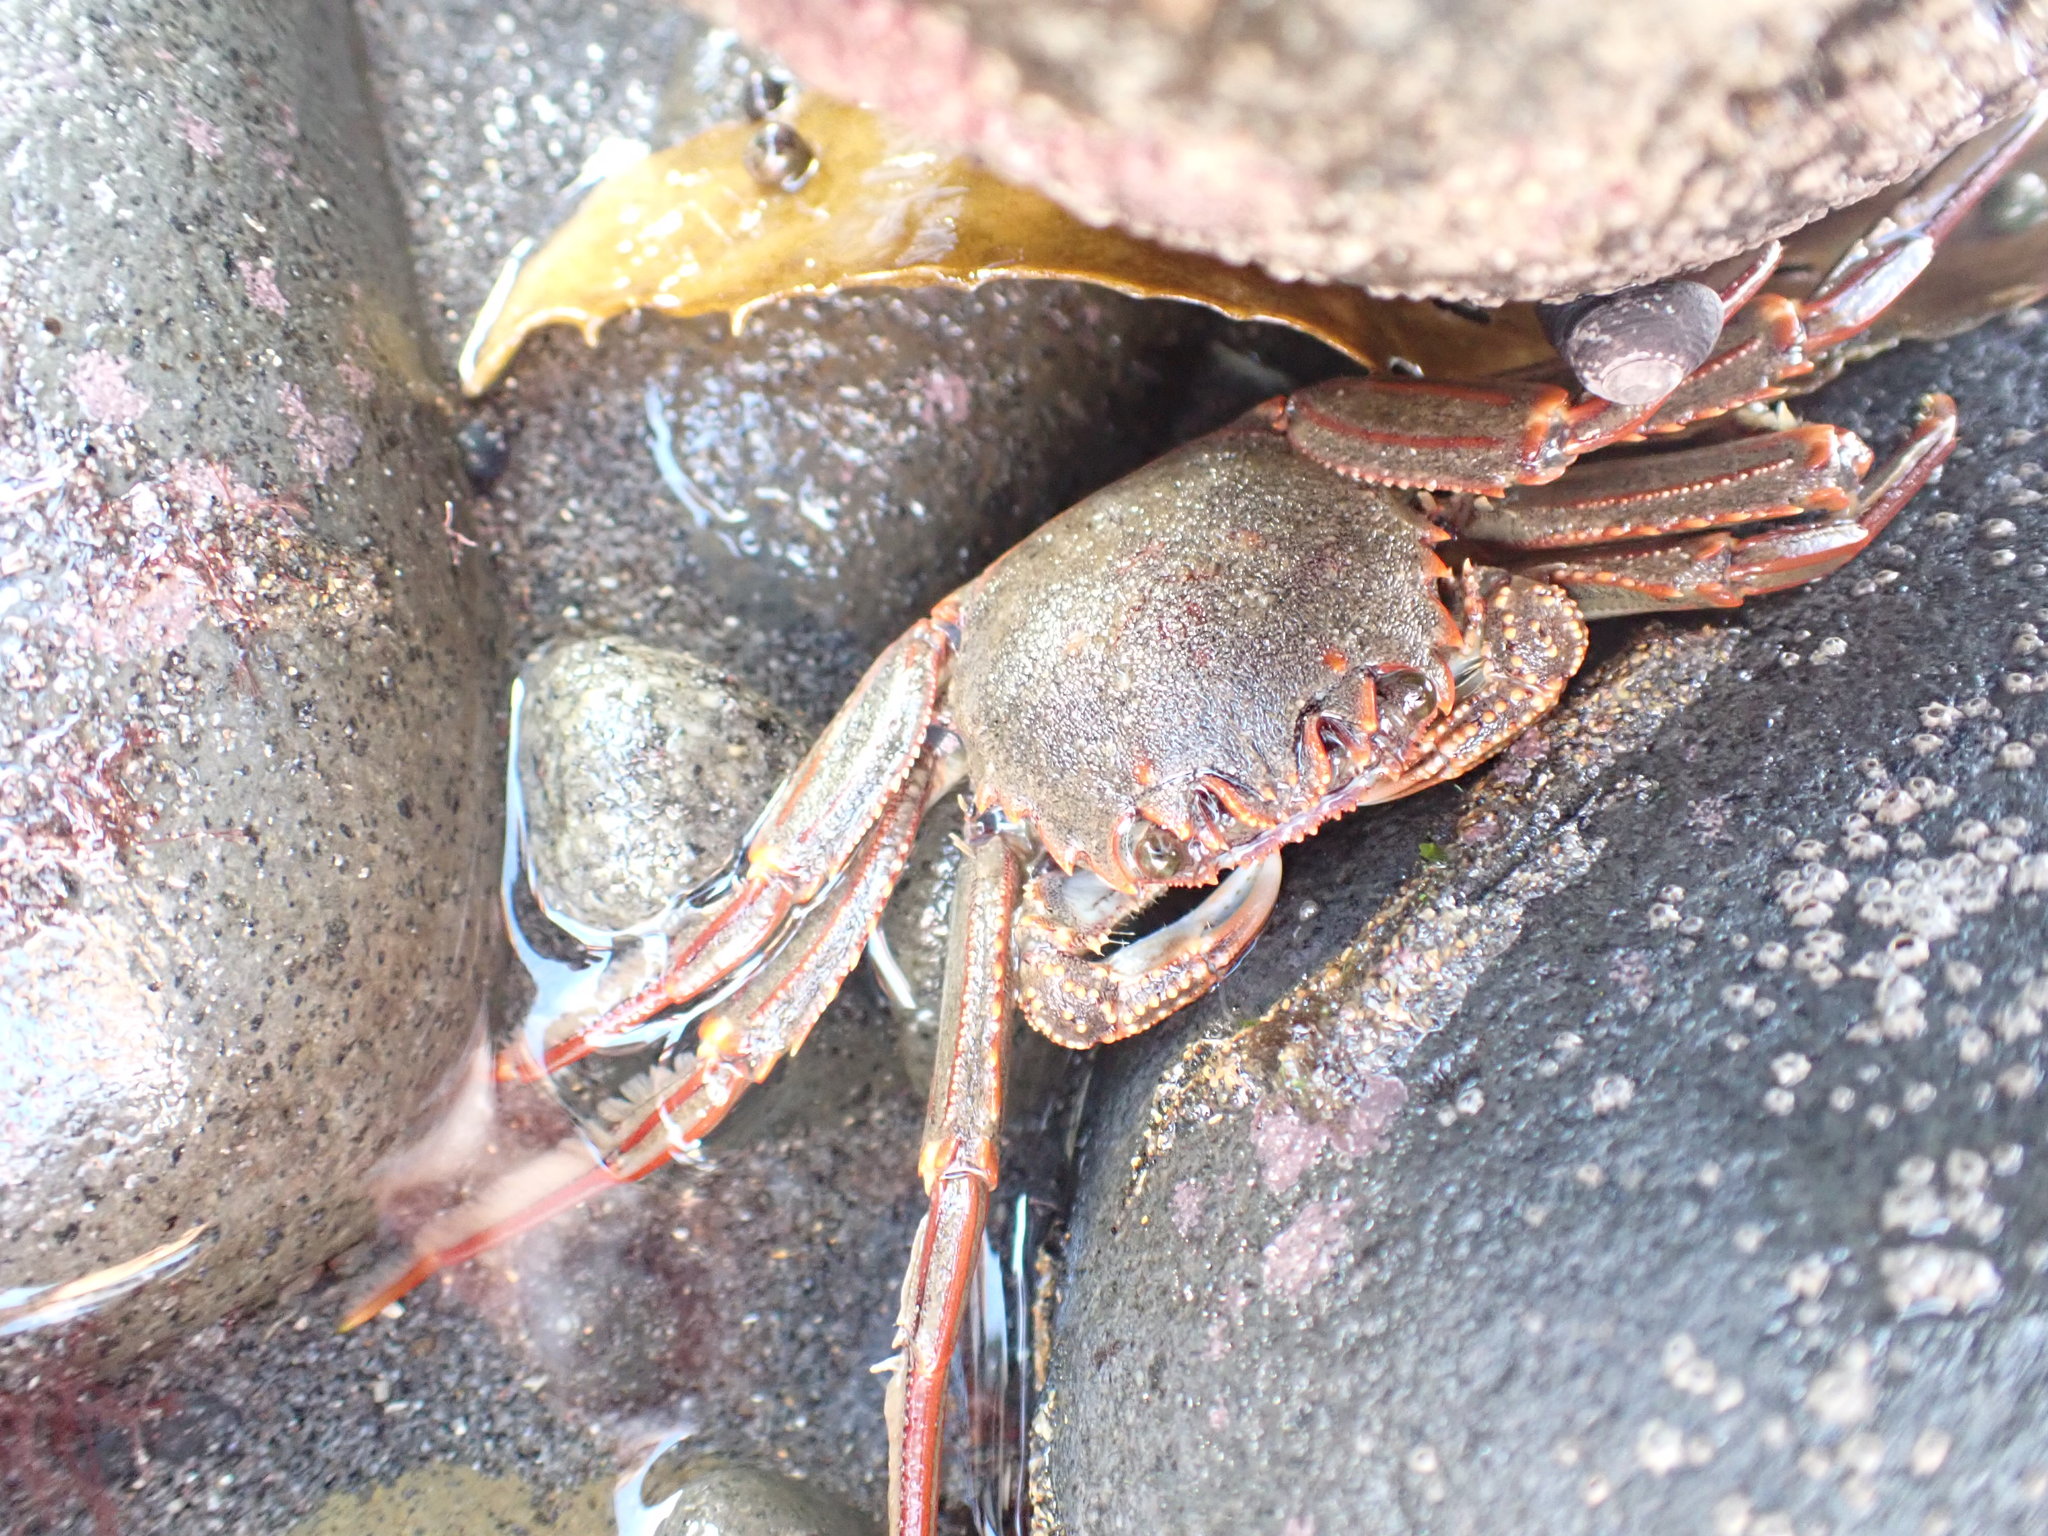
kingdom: Animalia
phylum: Arthropoda
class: Malacostraca
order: Decapoda
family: Plagusiidae
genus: Guinusia
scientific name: Guinusia chabrus
